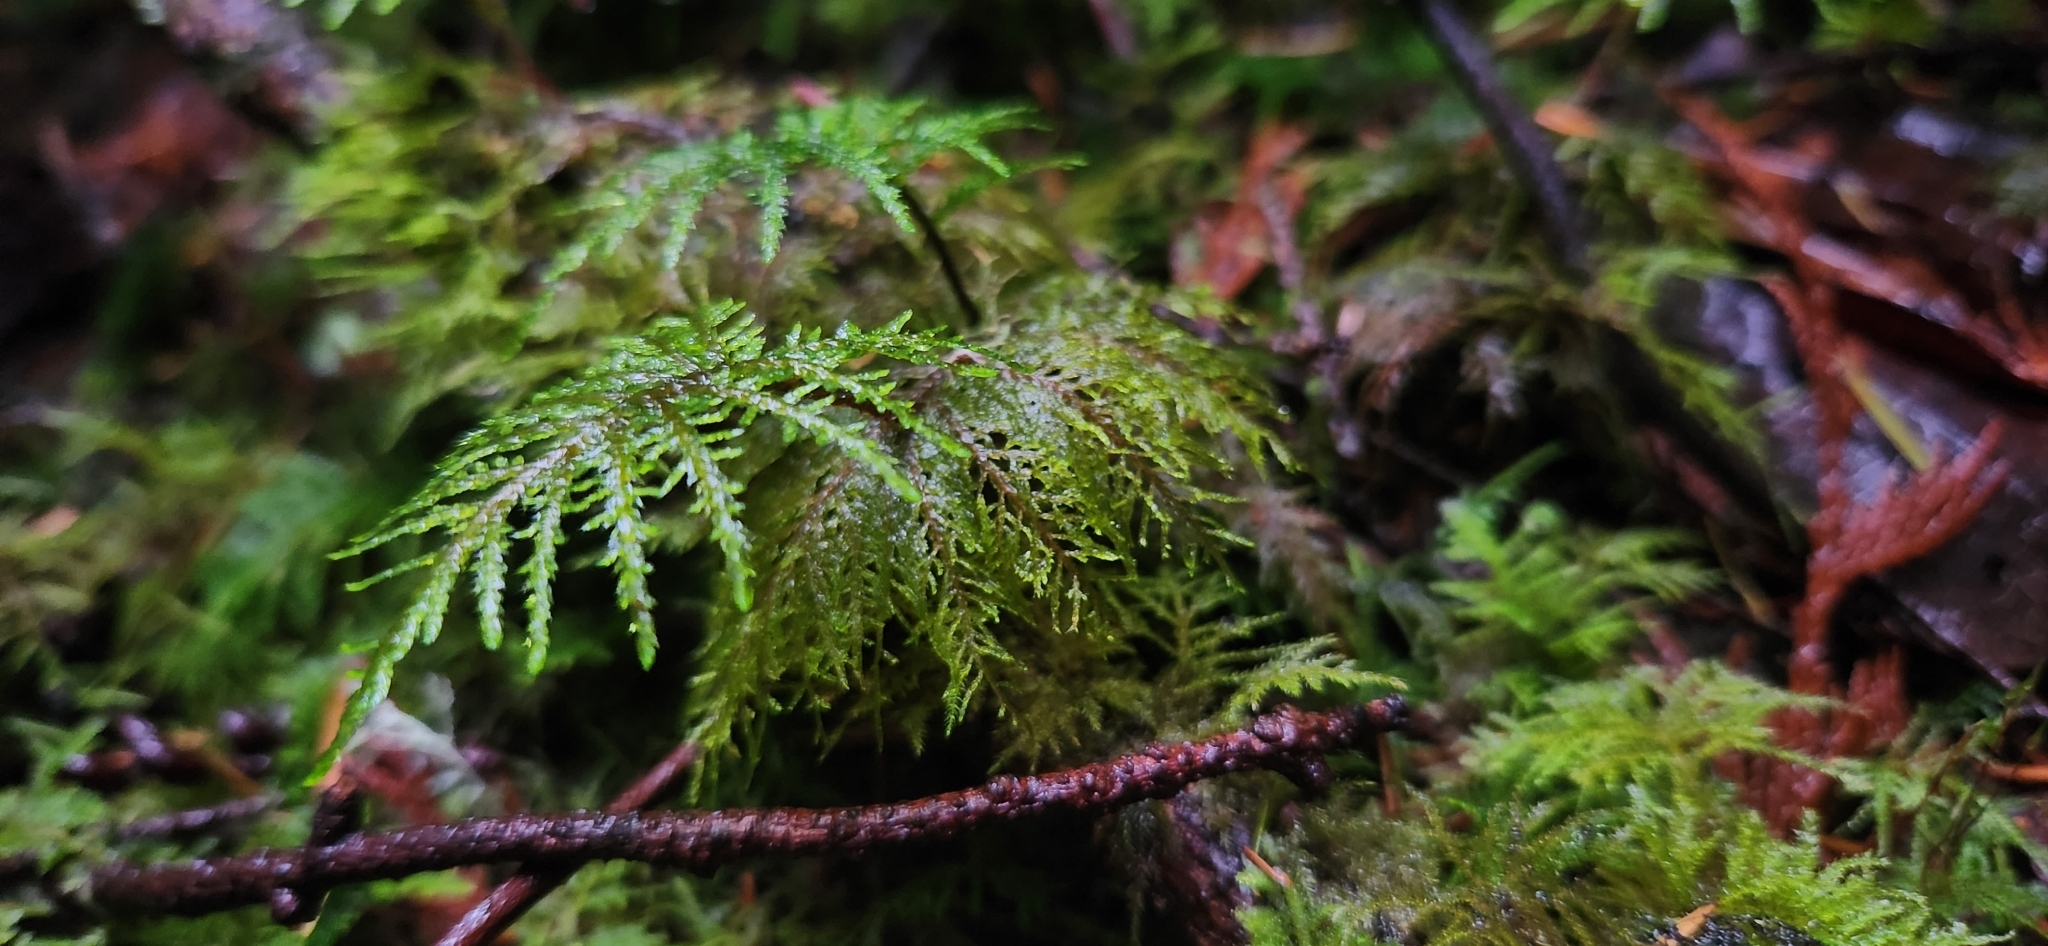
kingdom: Plantae
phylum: Bryophyta
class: Bryopsida
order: Hypnales
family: Hylocomiaceae
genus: Hylocomium
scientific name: Hylocomium splendens
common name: Stairstep moss
